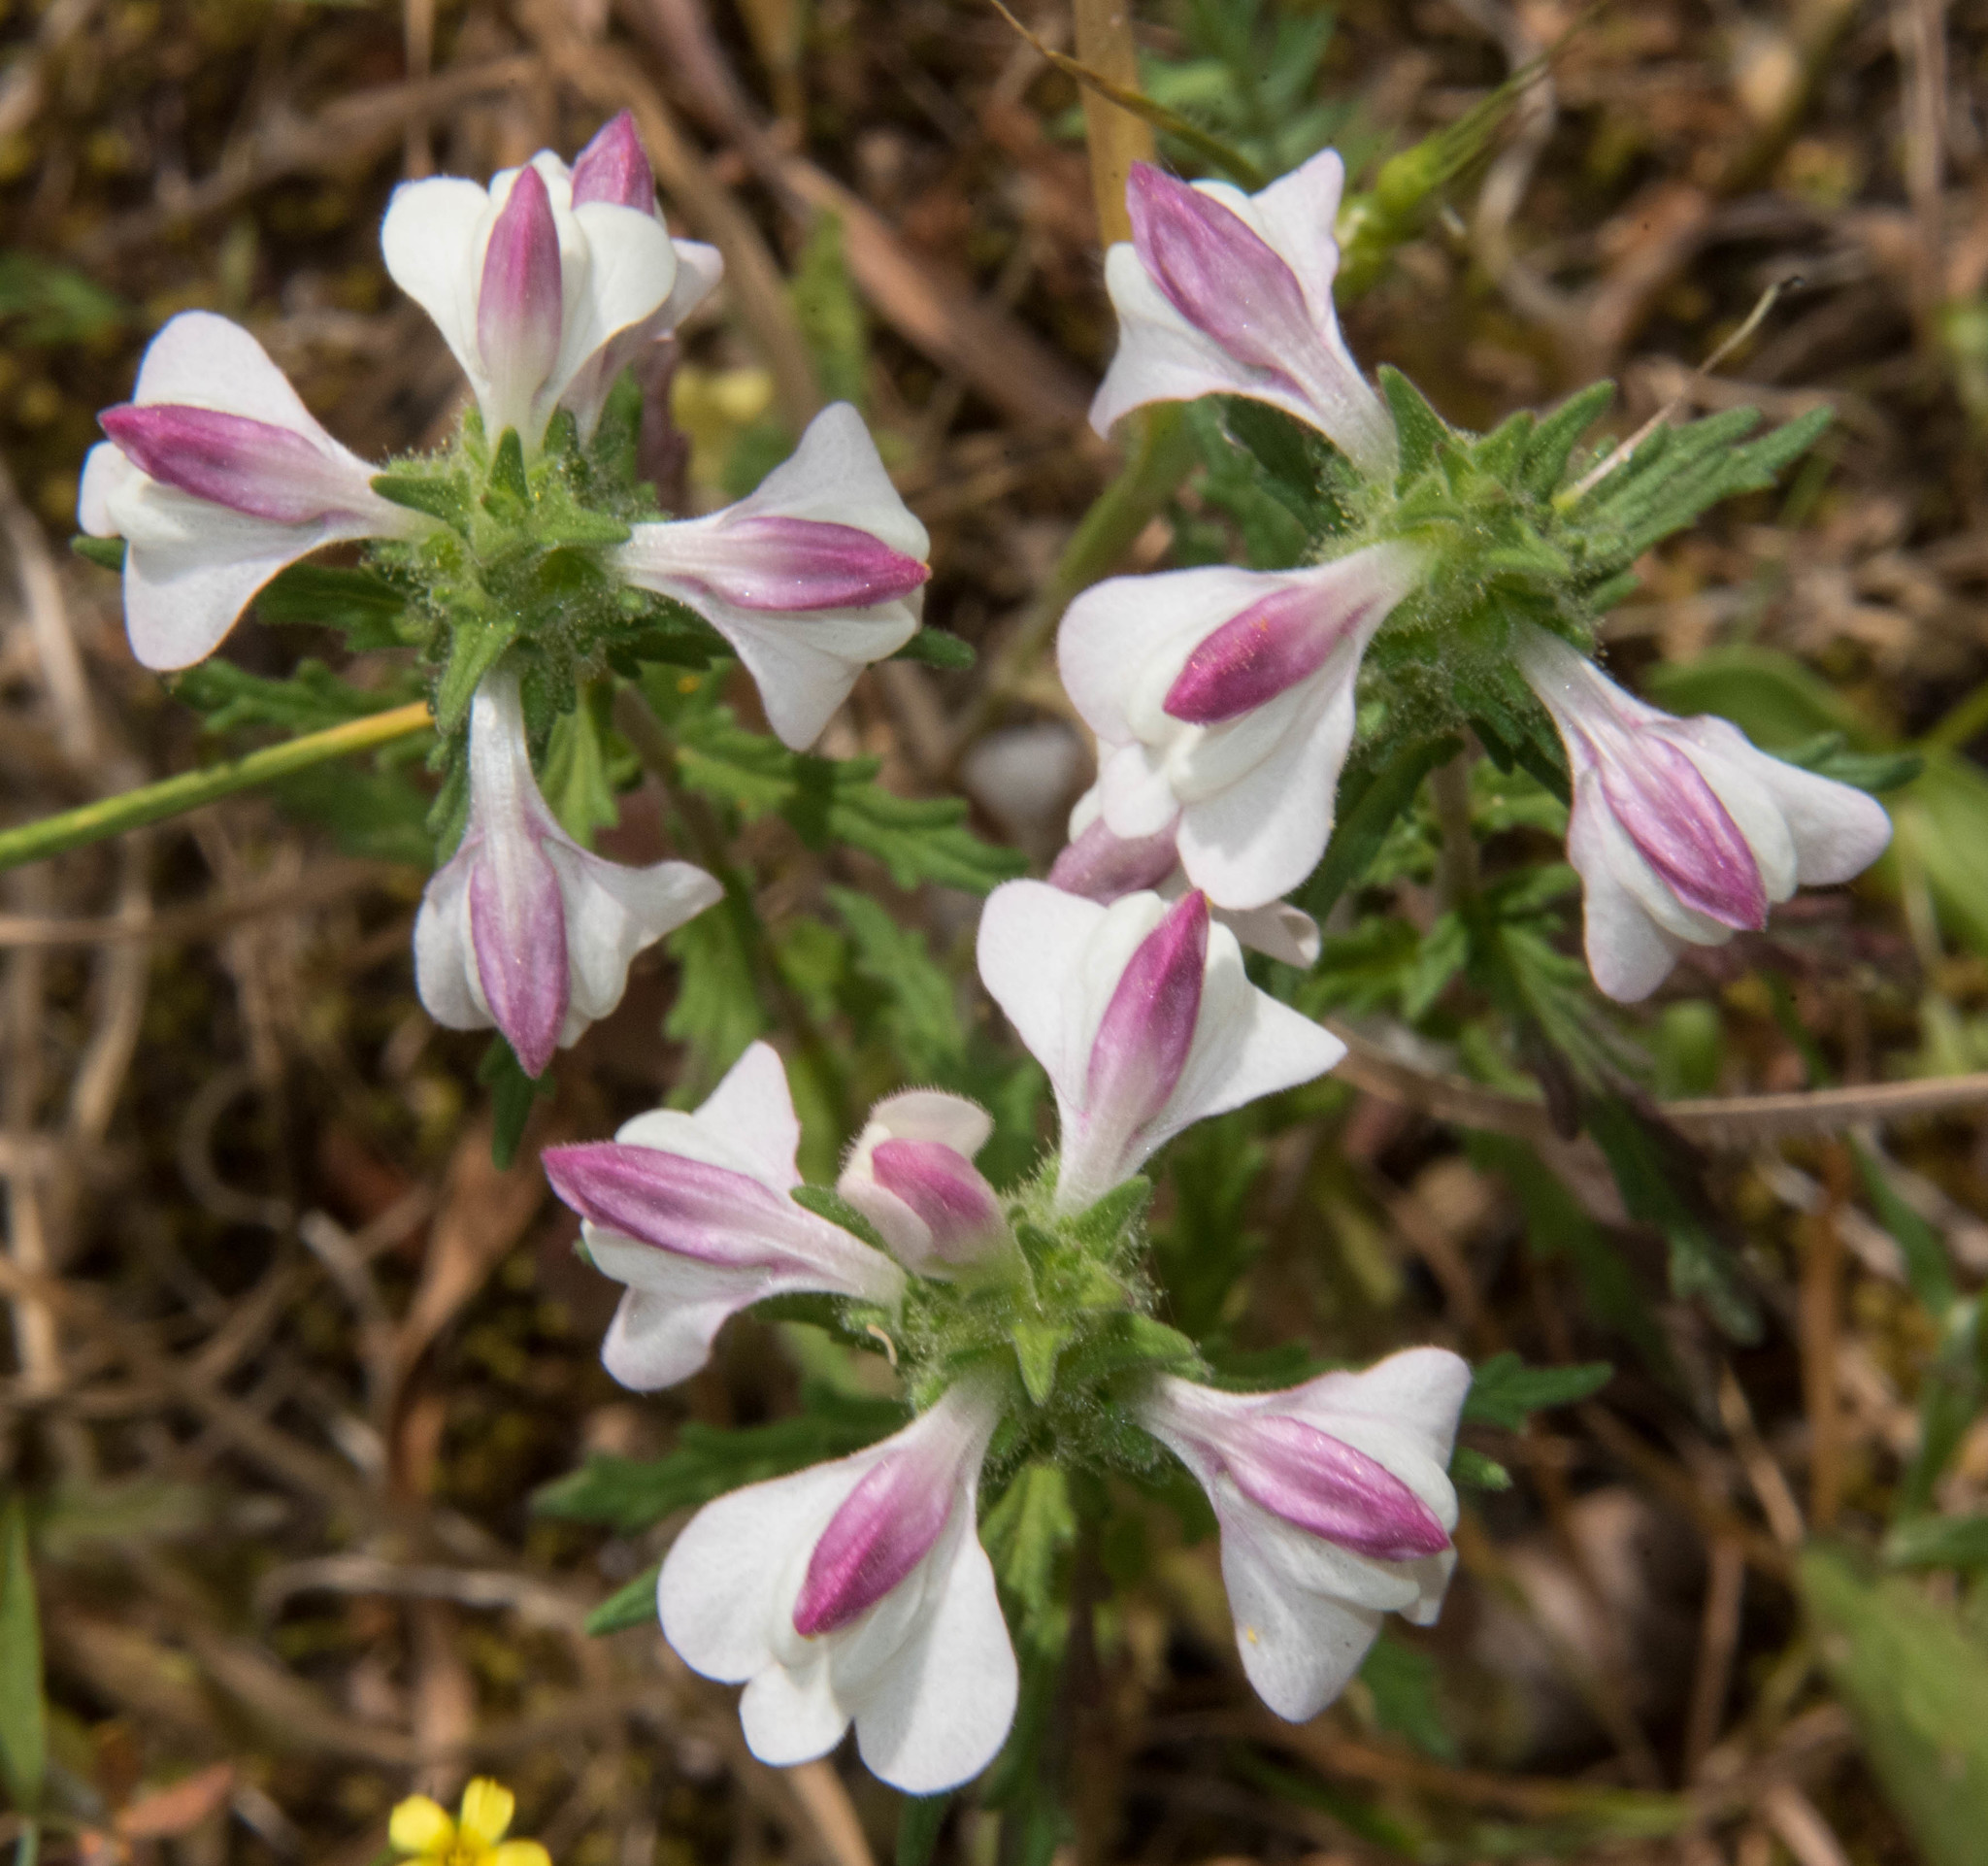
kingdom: Plantae
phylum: Tracheophyta
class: Magnoliopsida
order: Lamiales
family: Orobanchaceae
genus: Bellardia
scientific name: Bellardia trixago
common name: Mediterranean lineseed
